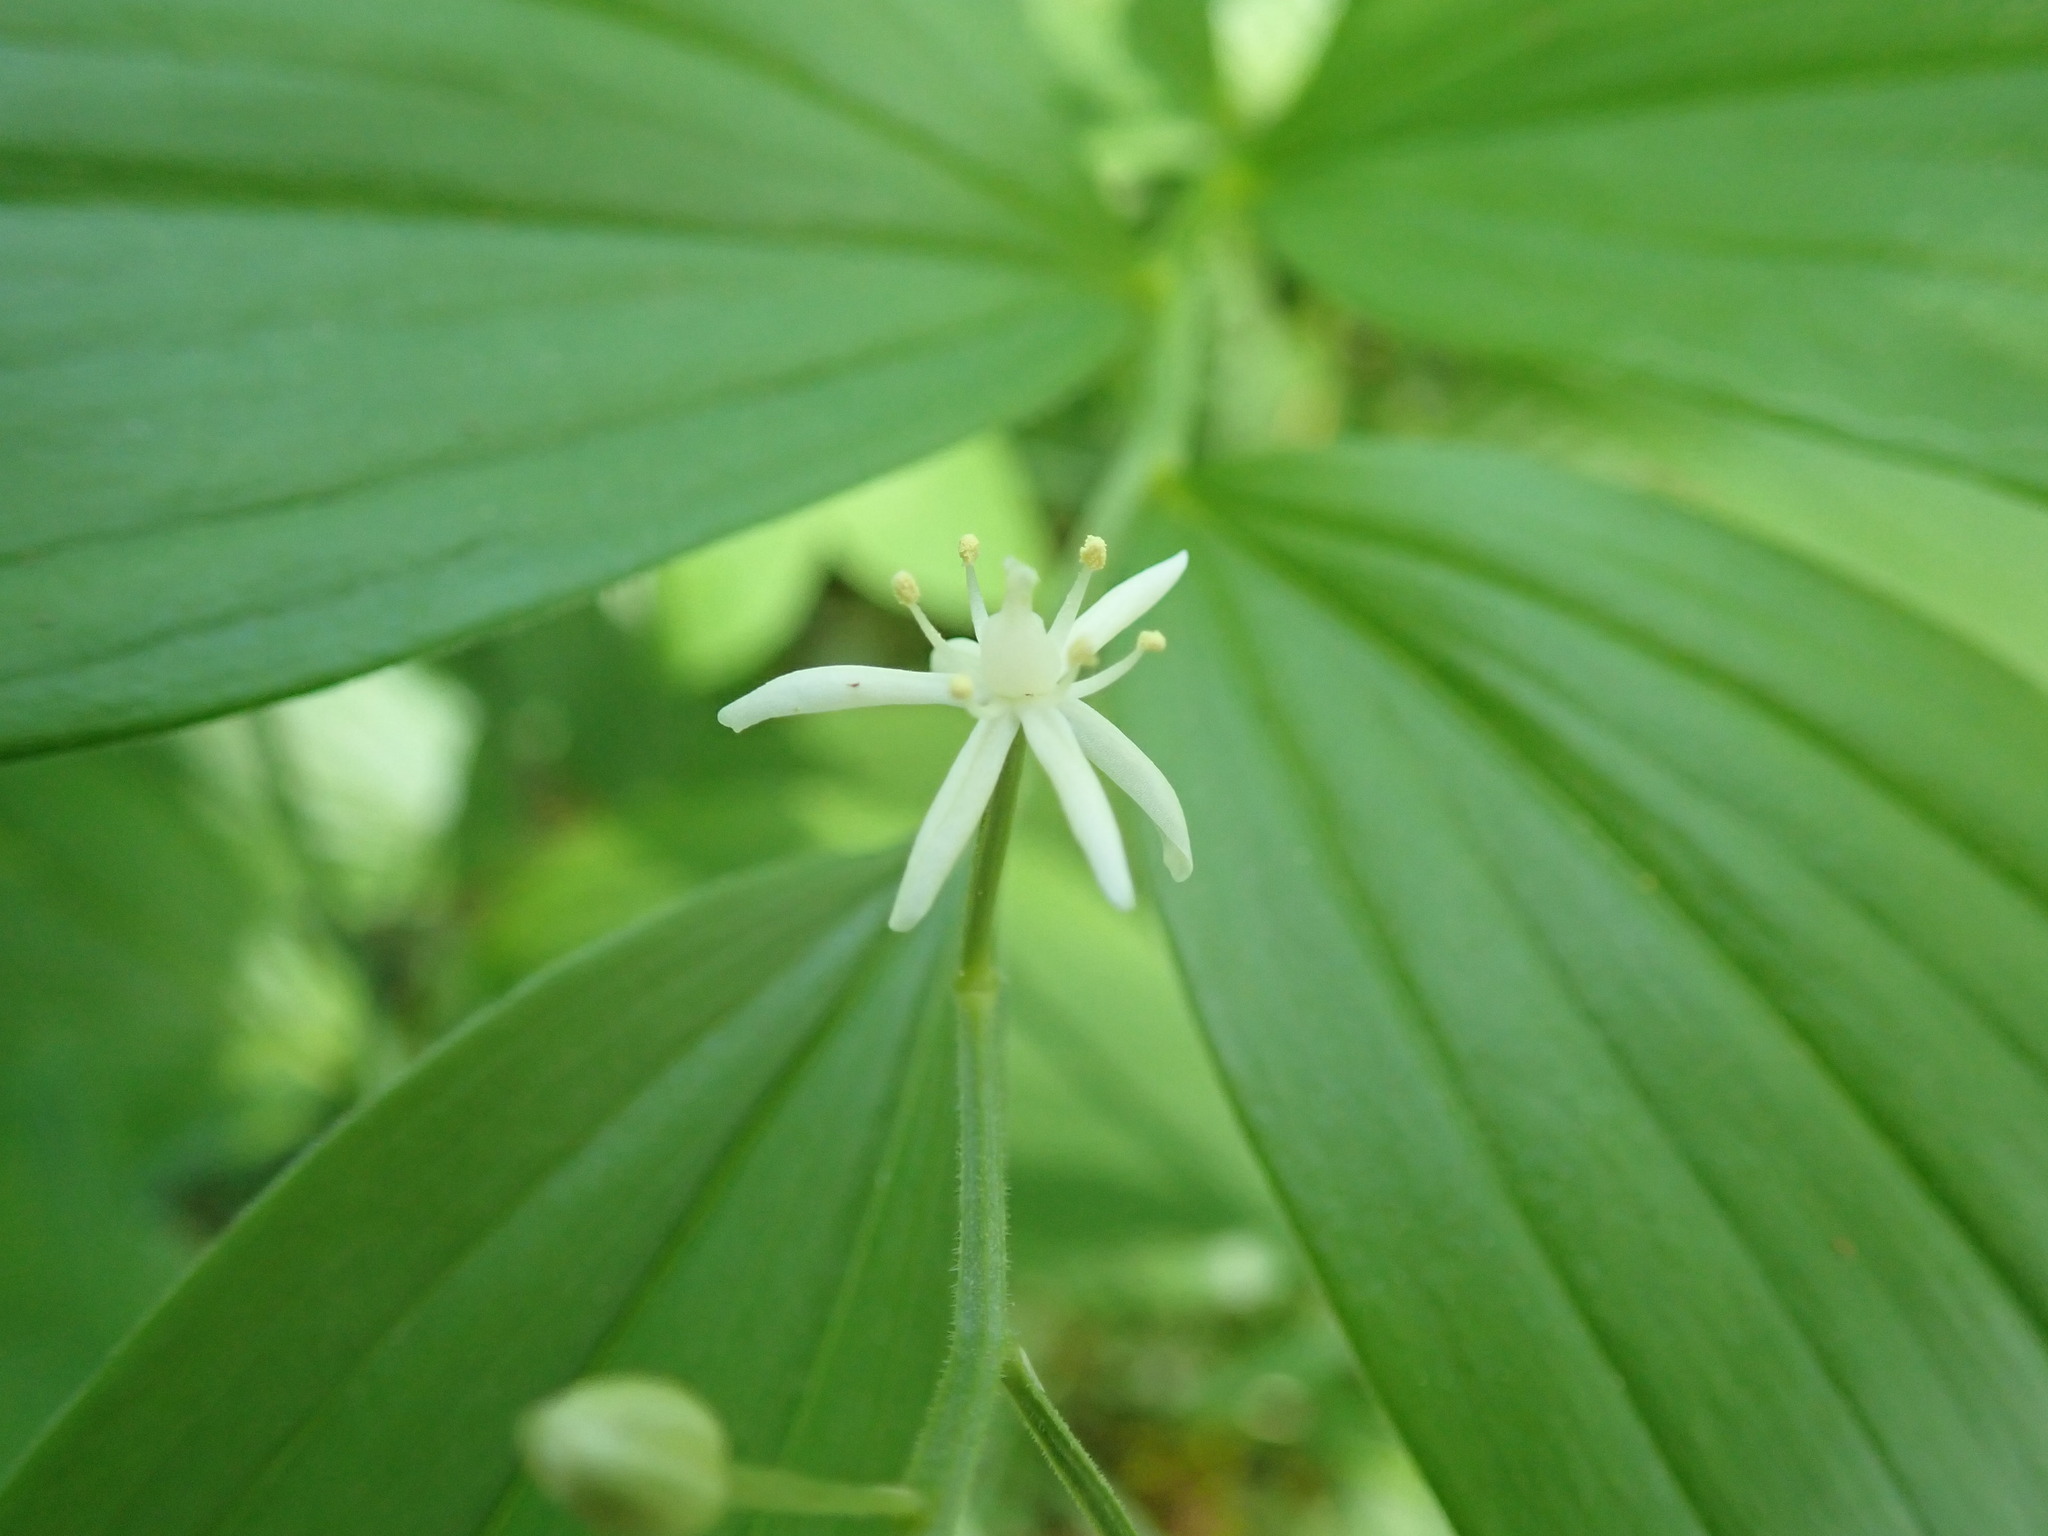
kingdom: Plantae
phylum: Tracheophyta
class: Liliopsida
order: Asparagales
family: Asparagaceae
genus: Maianthemum
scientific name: Maianthemum stellatum
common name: Little false solomon's seal
